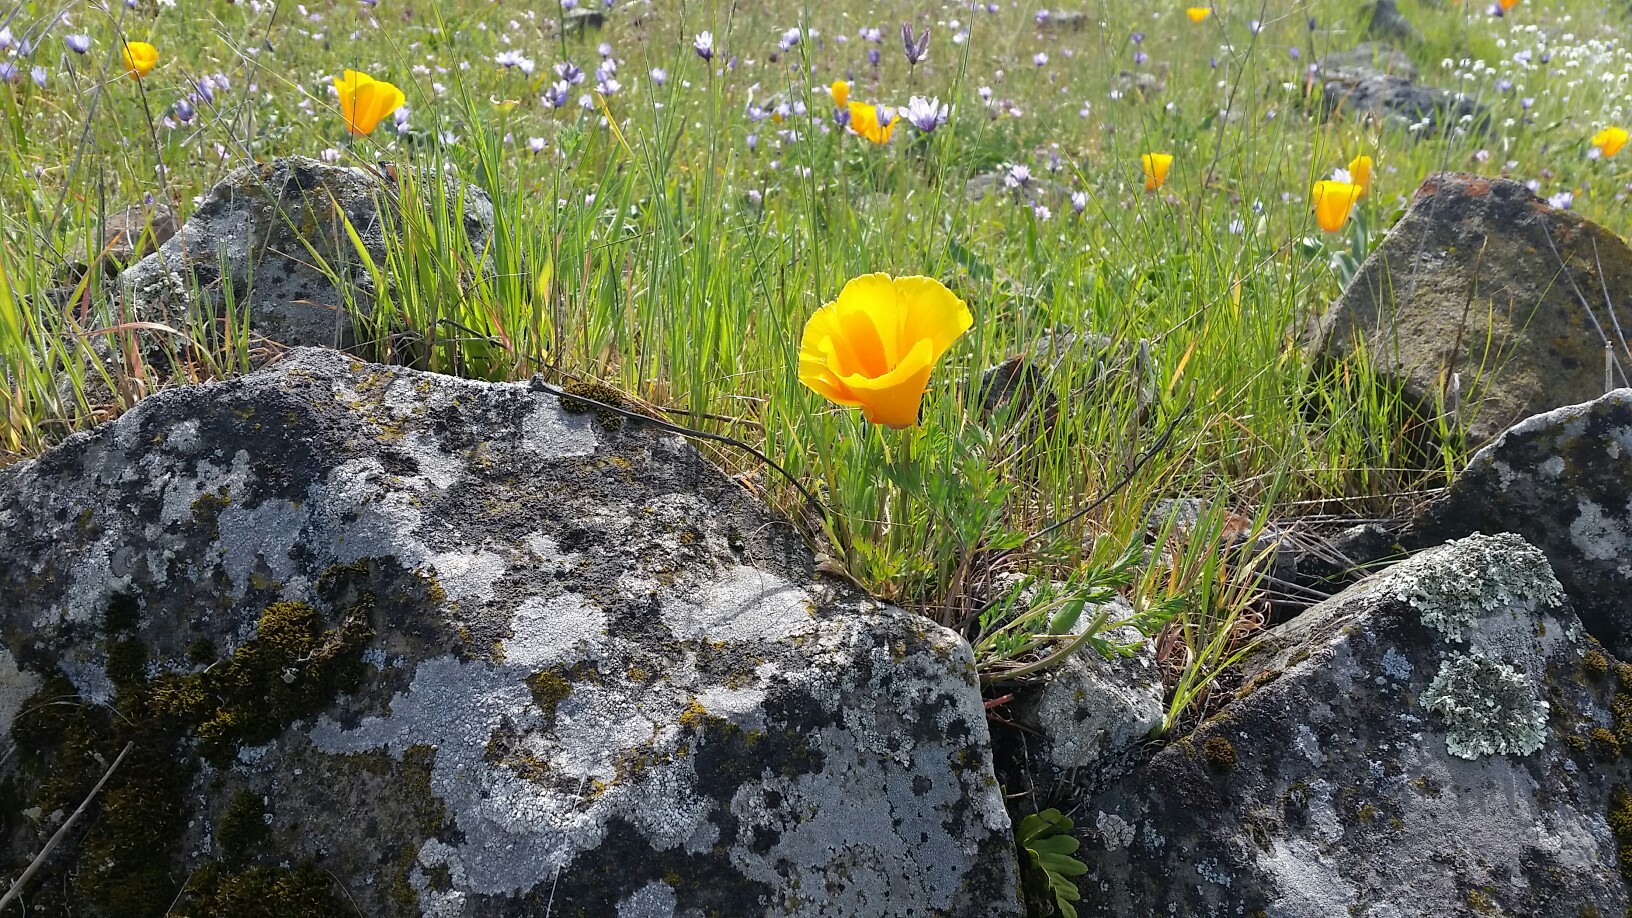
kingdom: Plantae
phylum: Tracheophyta
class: Magnoliopsida
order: Ranunculales
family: Papaveraceae
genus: Eschscholzia
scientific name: Eschscholzia californica
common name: California poppy
